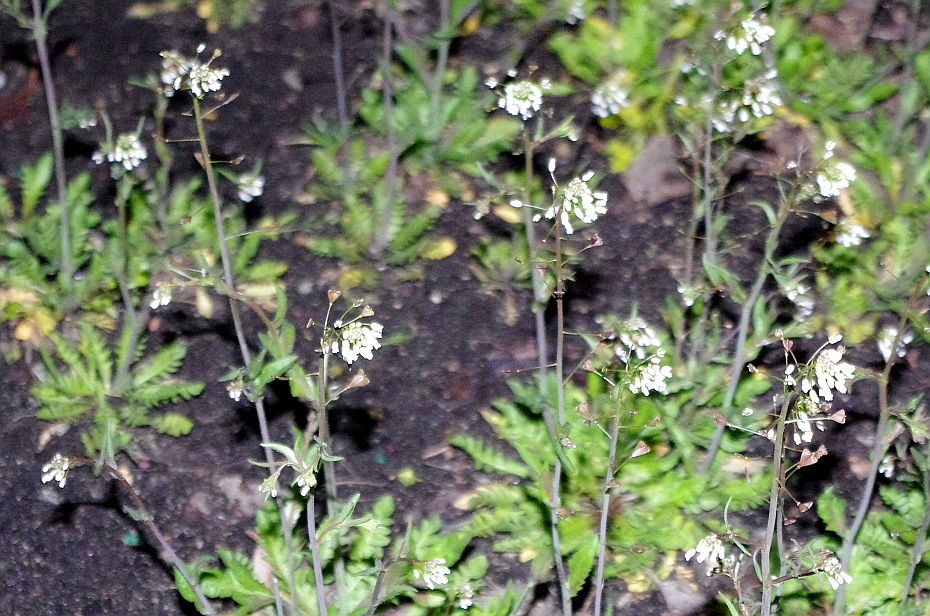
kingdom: Plantae
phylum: Tracheophyta
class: Magnoliopsida
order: Brassicales
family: Brassicaceae
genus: Capsella
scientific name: Capsella bursa-pastoris
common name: Shepherd's purse
